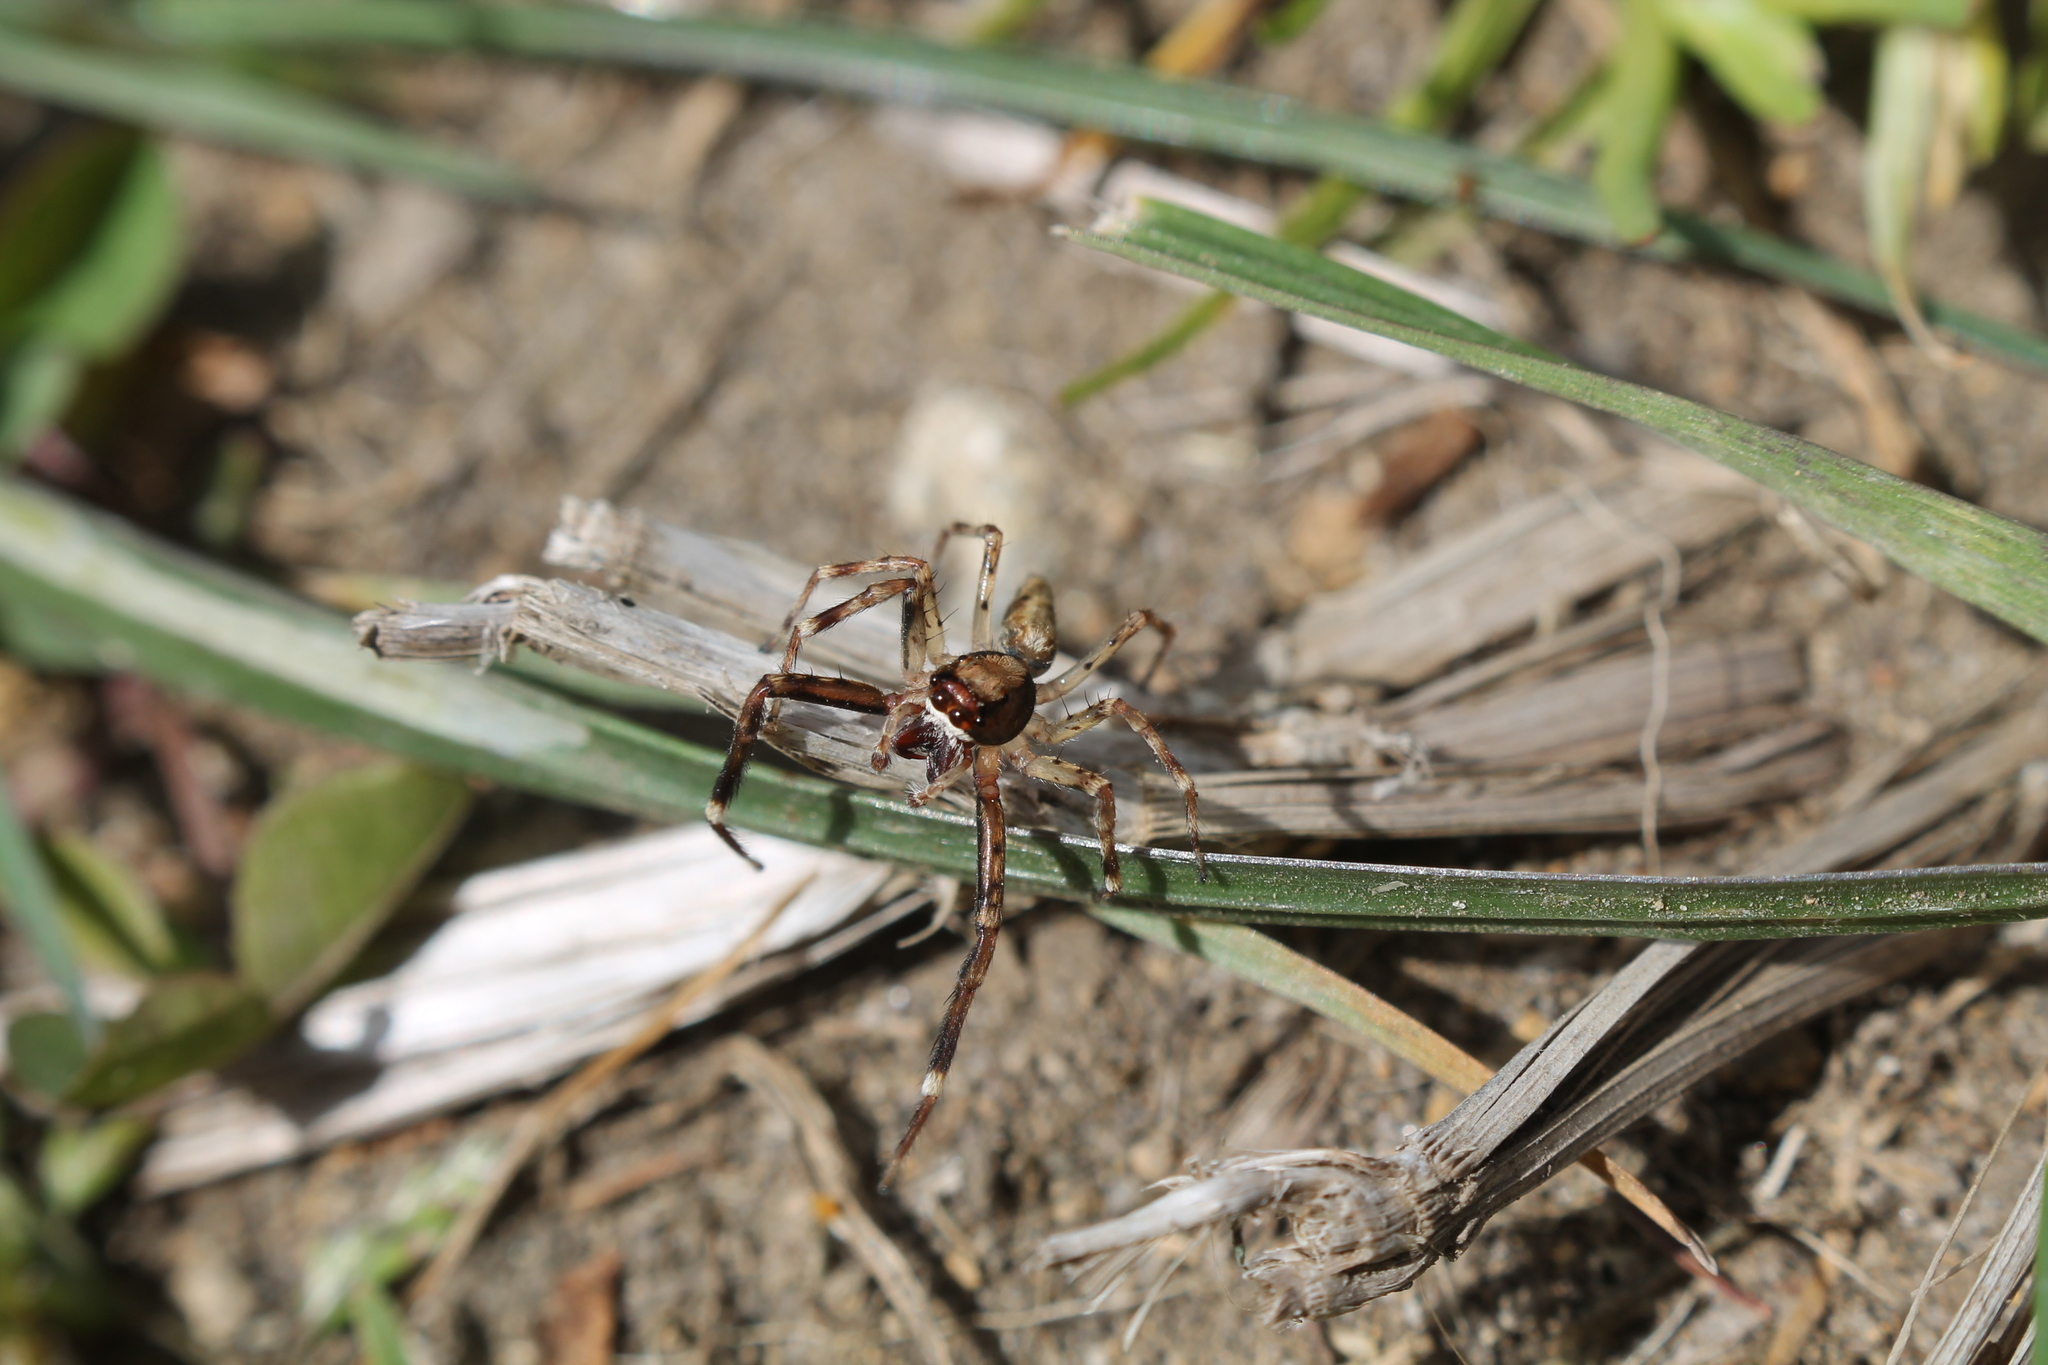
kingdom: Animalia
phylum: Arthropoda
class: Arachnida
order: Araneae
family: Salticidae
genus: Helpis
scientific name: Helpis minitabunda
